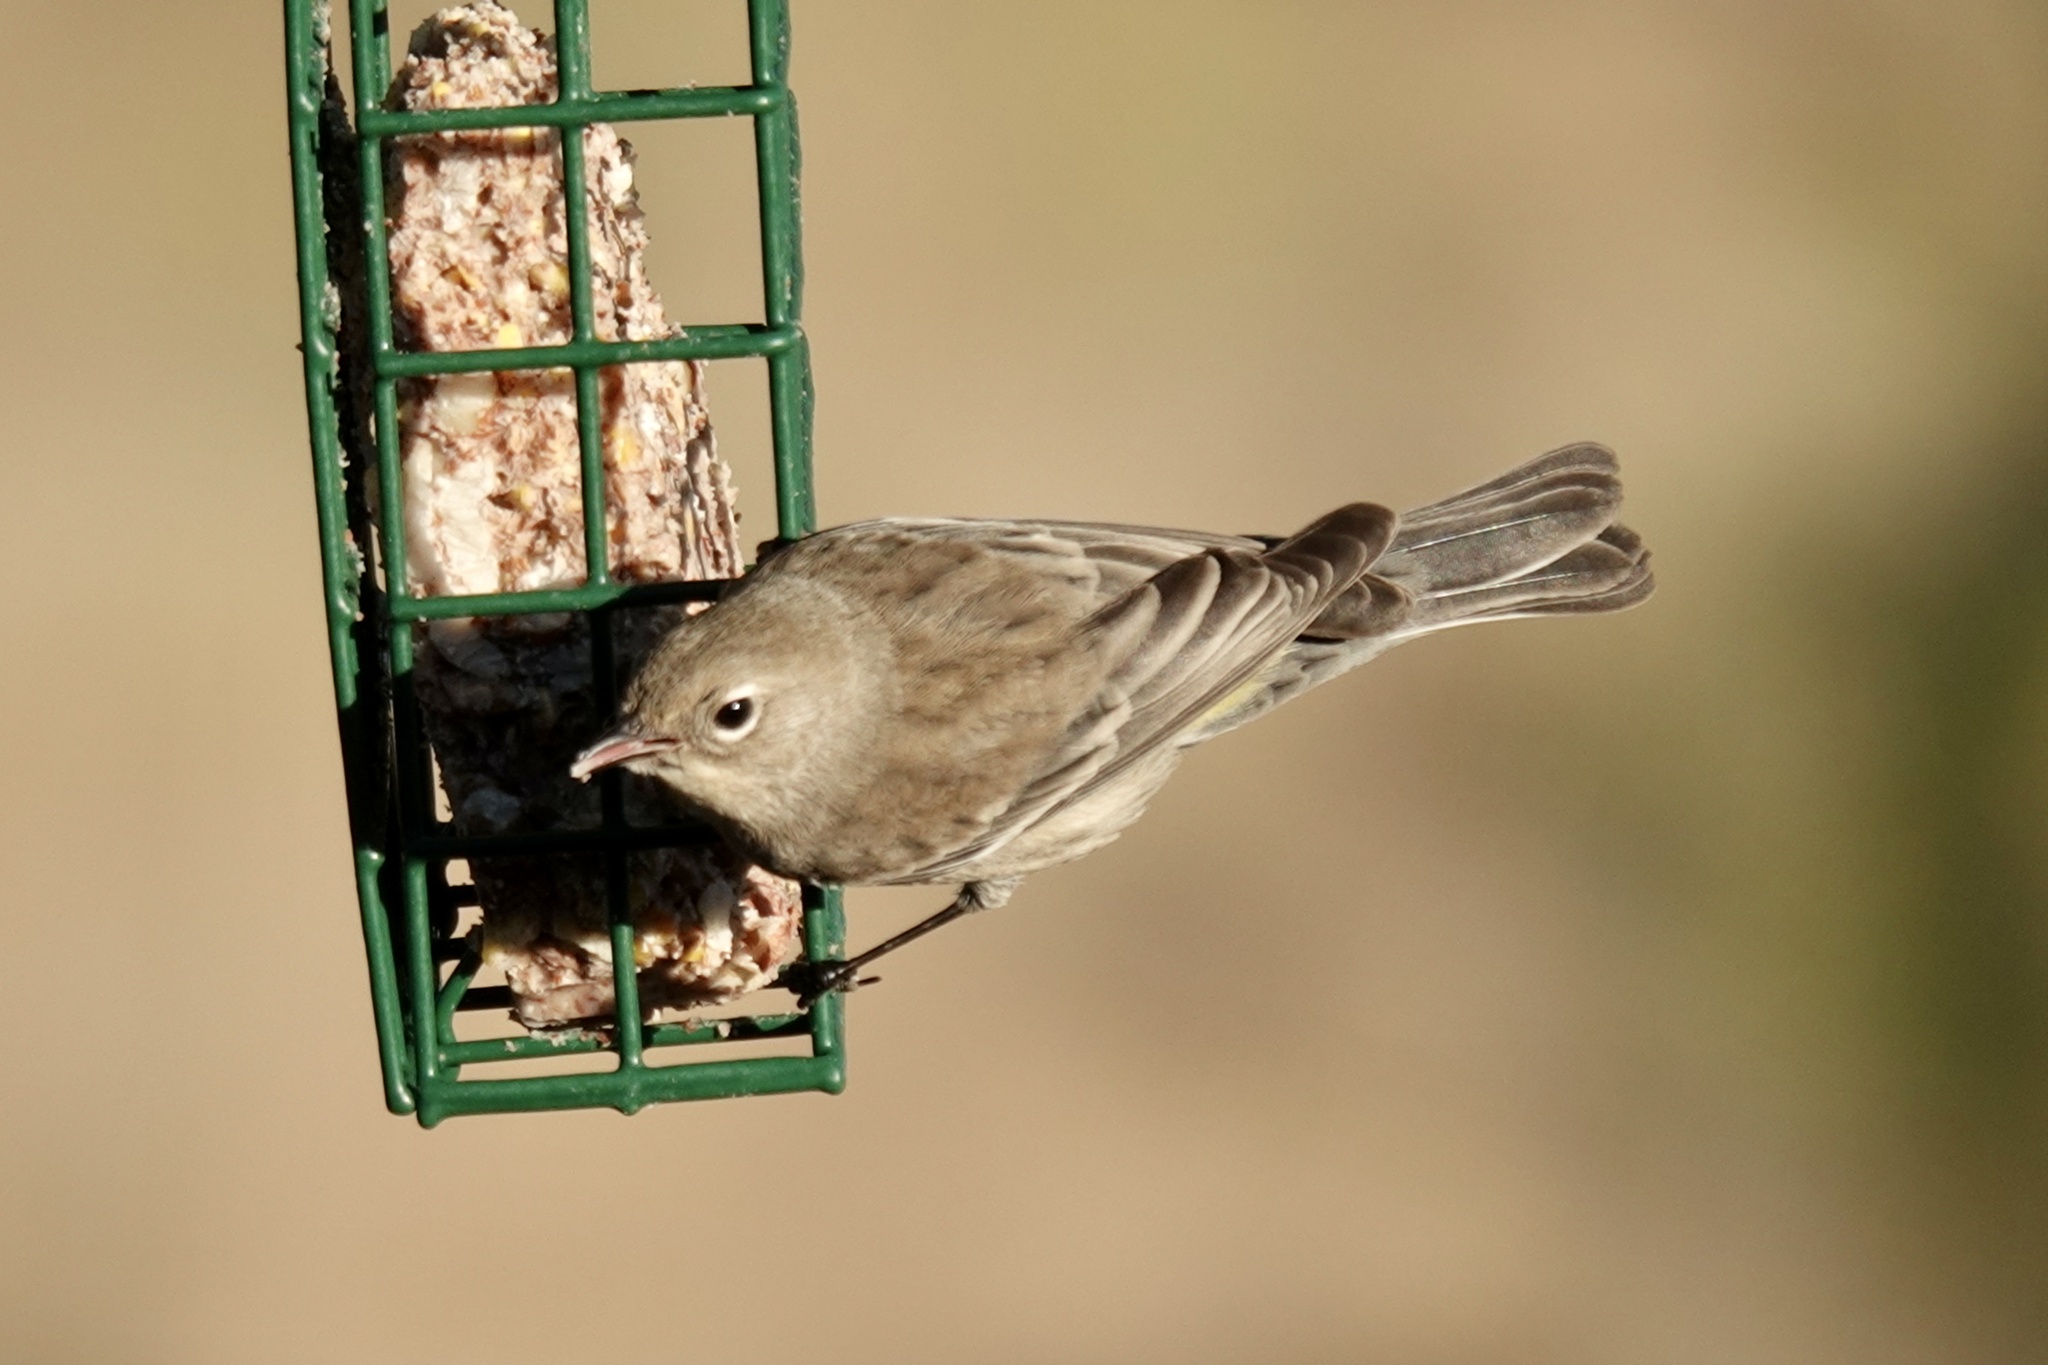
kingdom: Animalia
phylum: Chordata
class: Aves
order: Passeriformes
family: Parulidae
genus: Setophaga
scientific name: Setophaga coronata
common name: Myrtle warbler
